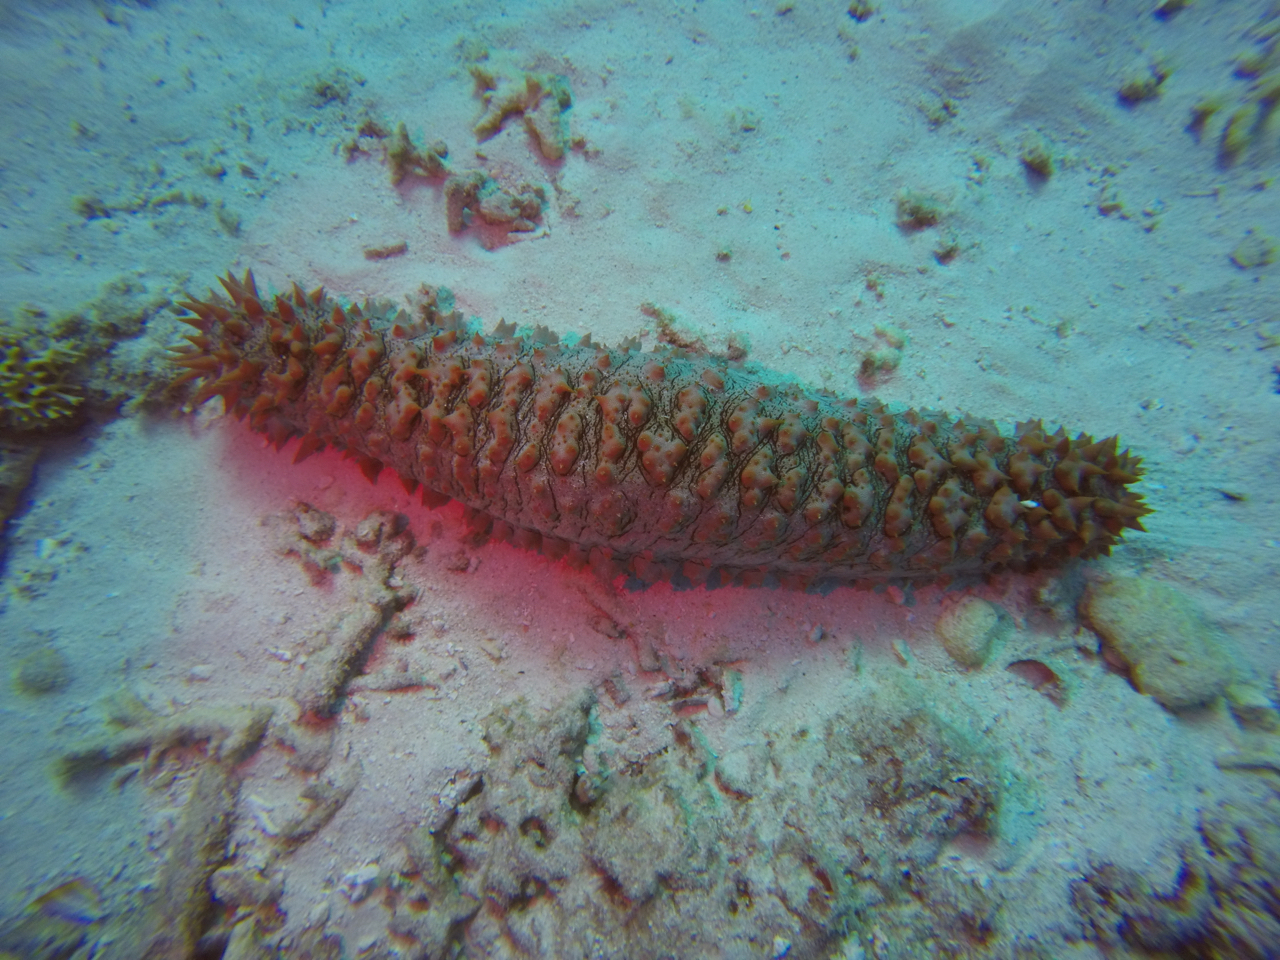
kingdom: Animalia
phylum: Echinodermata
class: Holothuroidea
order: Synallactida
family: Stichopodidae
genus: Thelenota
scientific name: Thelenota ananas
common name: Prickly redfish
